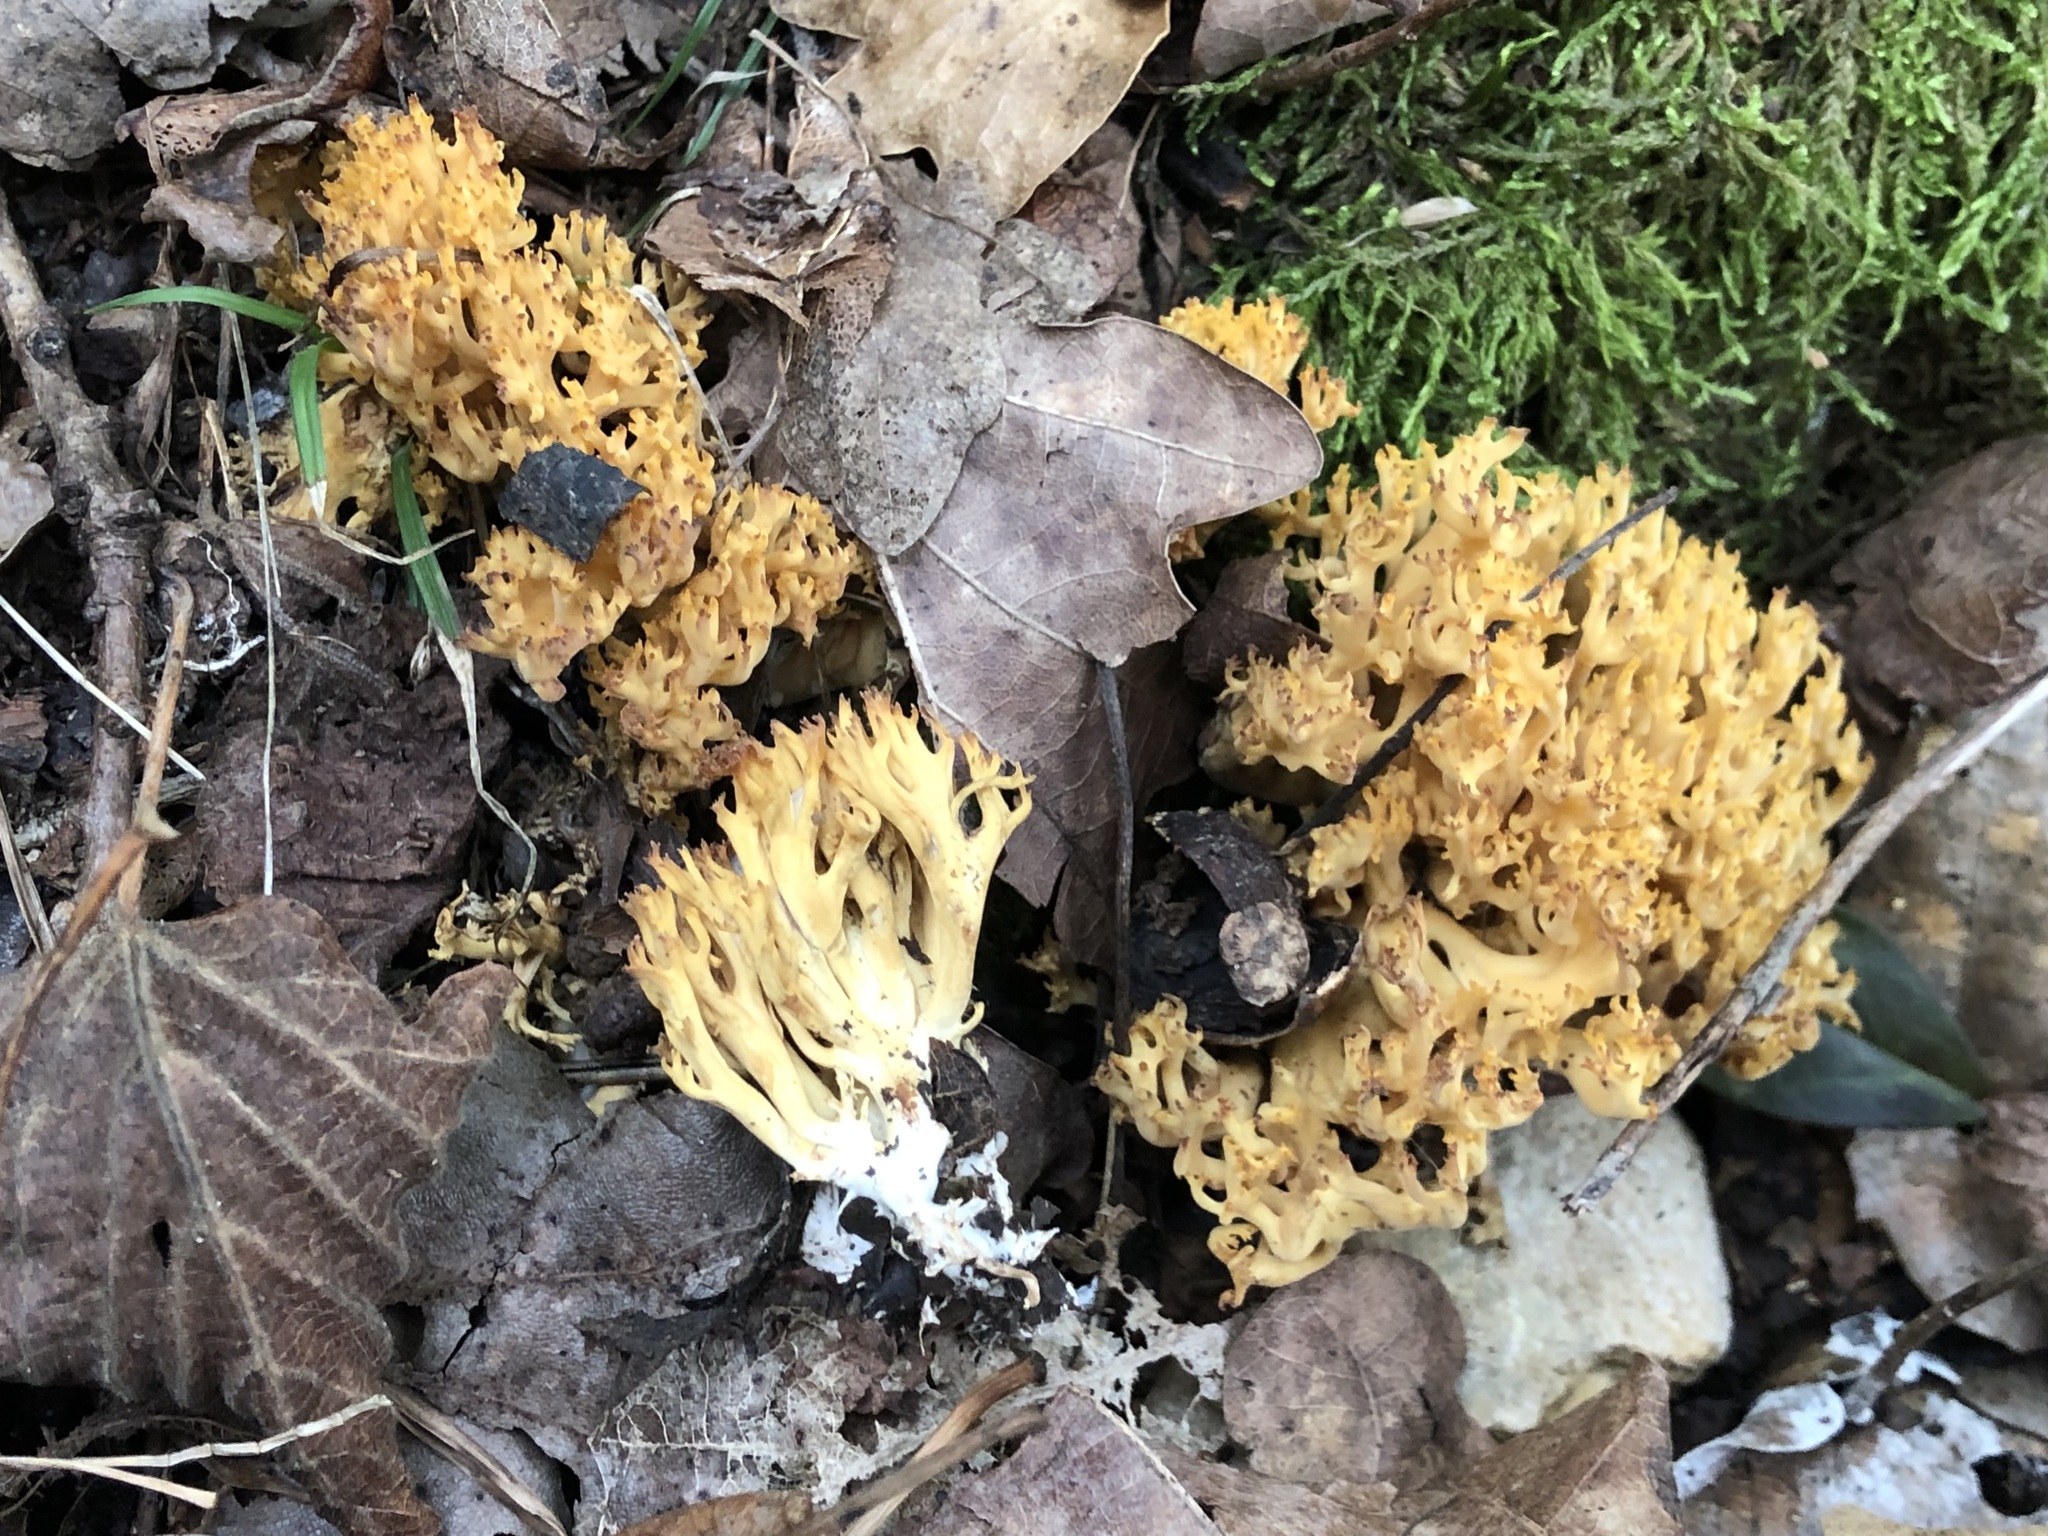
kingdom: Fungi
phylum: Basidiomycota
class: Agaricomycetes
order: Gomphales
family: Gomphaceae
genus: Phaeoclavulina
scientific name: Phaeoclavulina flaccida
